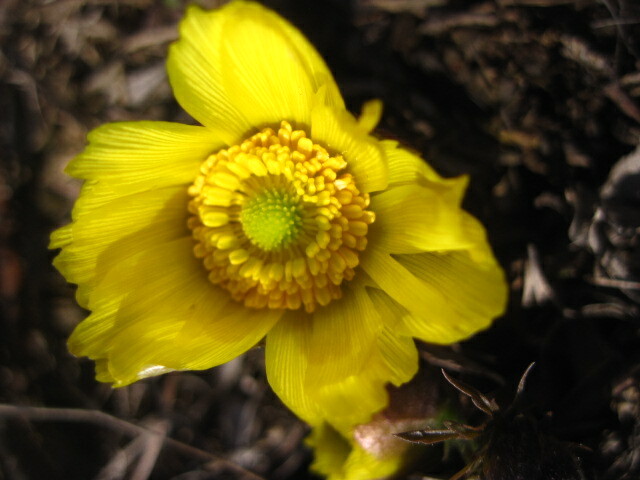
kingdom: Plantae
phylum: Tracheophyta
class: Magnoliopsida
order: Ranunculales
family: Ranunculaceae
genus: Adonis
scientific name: Adonis volgensis
